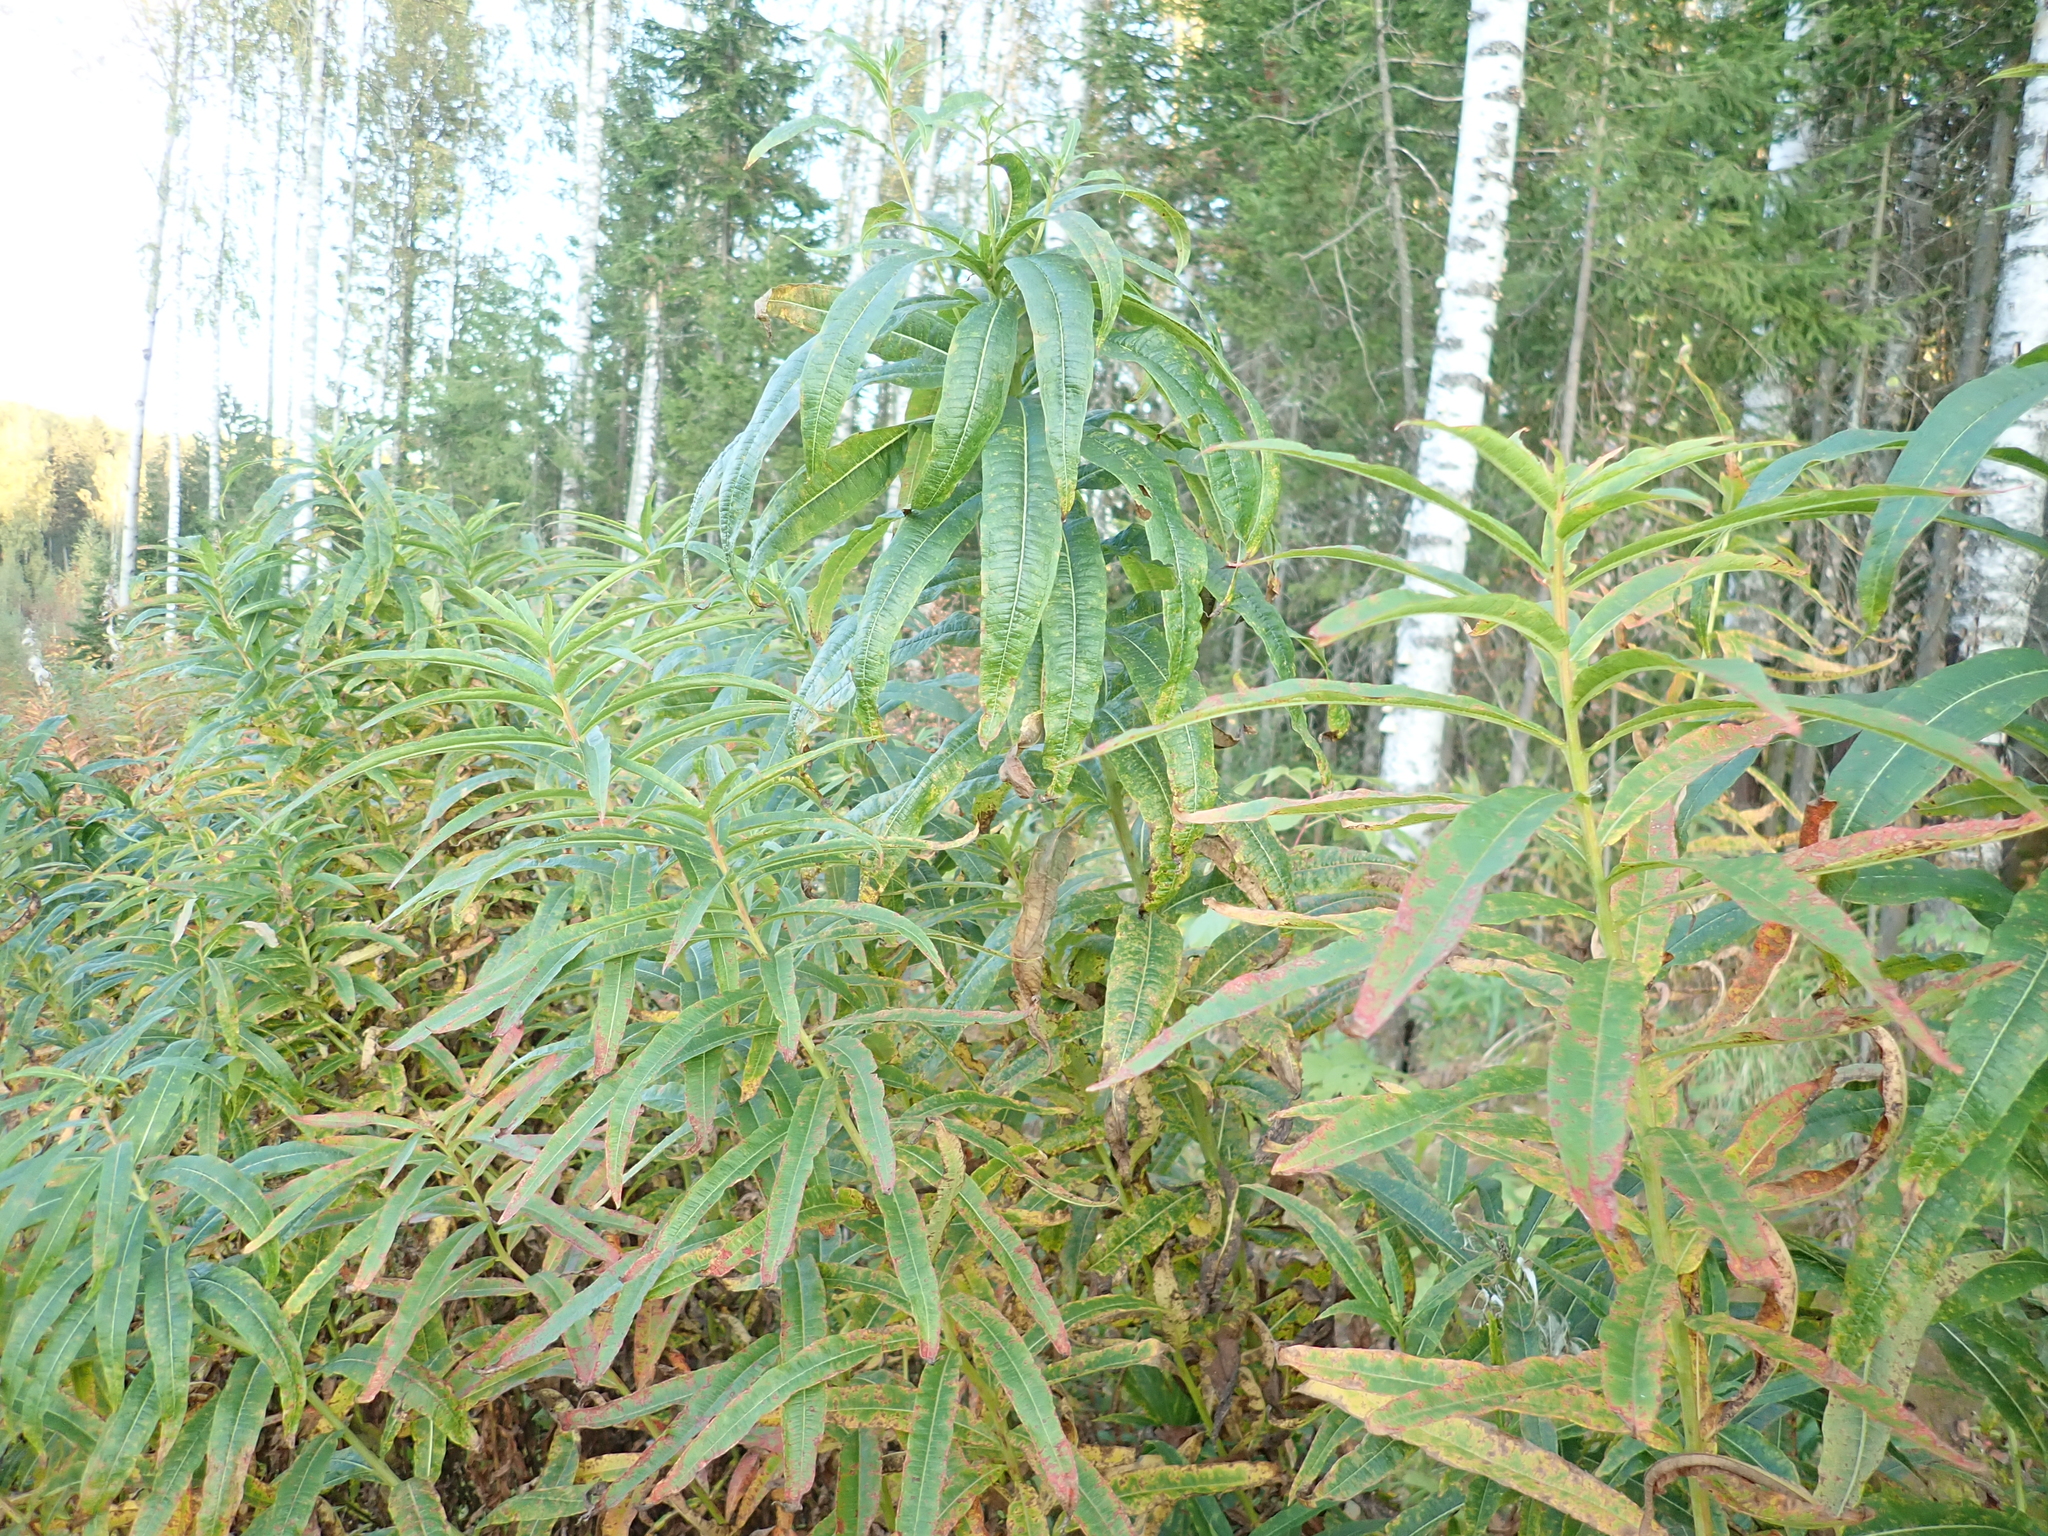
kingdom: Plantae
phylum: Tracheophyta
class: Magnoliopsida
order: Myrtales
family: Onagraceae
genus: Chamaenerion
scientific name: Chamaenerion angustifolium
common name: Fireweed
